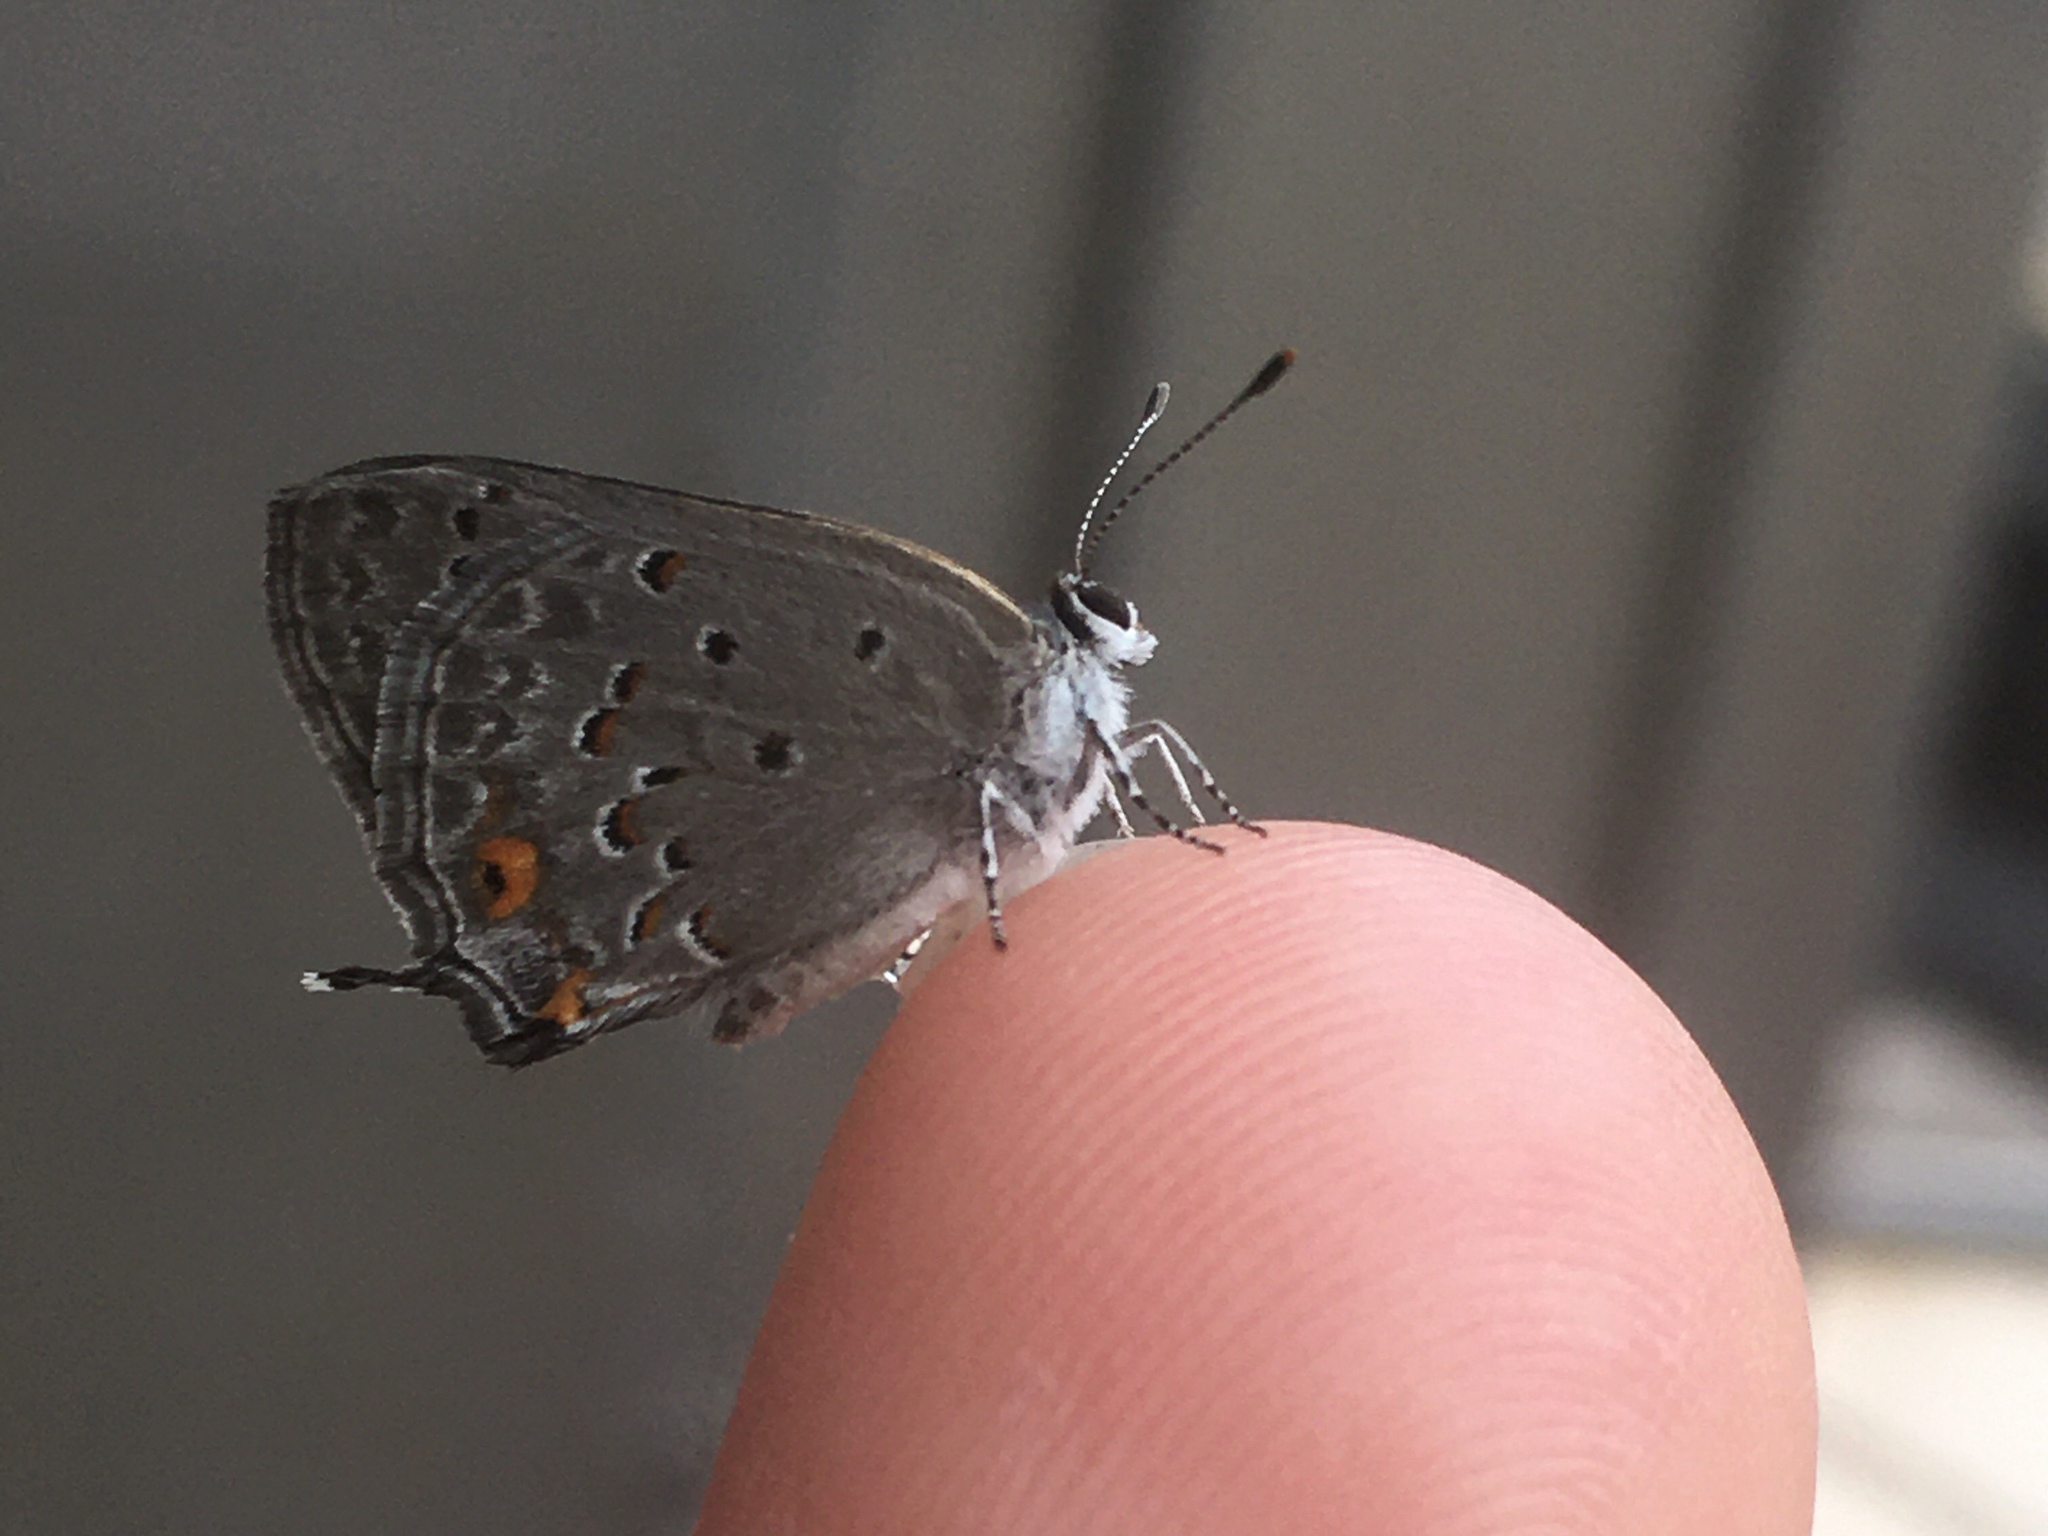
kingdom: Animalia
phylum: Arthropoda
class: Insecta
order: Lepidoptera
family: Lycaenidae
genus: Strymon
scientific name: Strymon eurytulus
